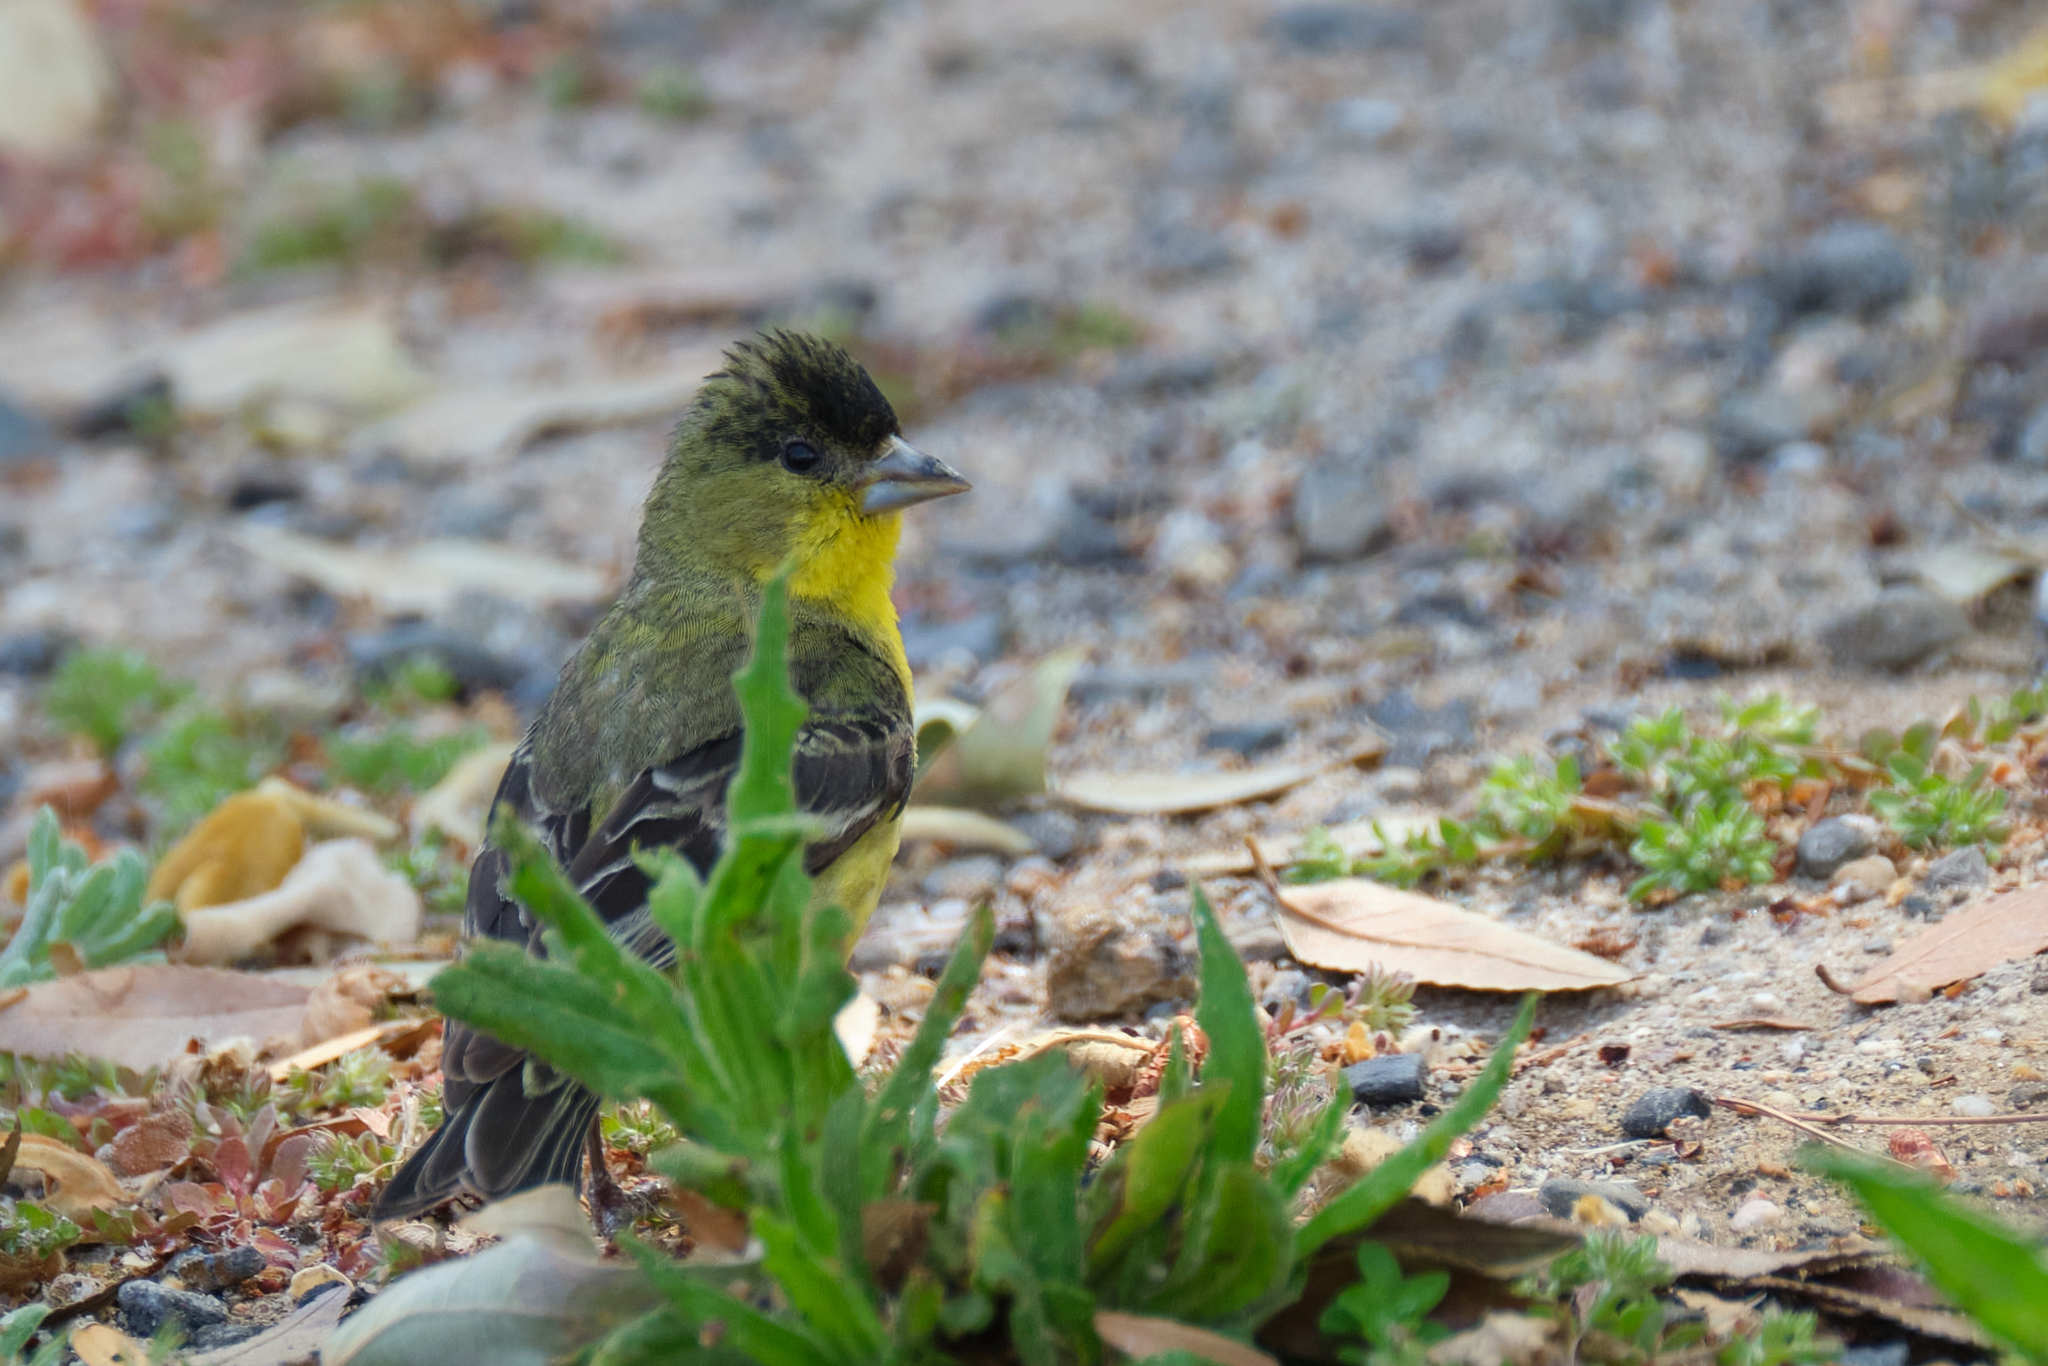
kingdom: Animalia
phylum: Chordata
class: Aves
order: Passeriformes
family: Fringillidae
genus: Spinus
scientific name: Spinus psaltria
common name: Lesser goldfinch
